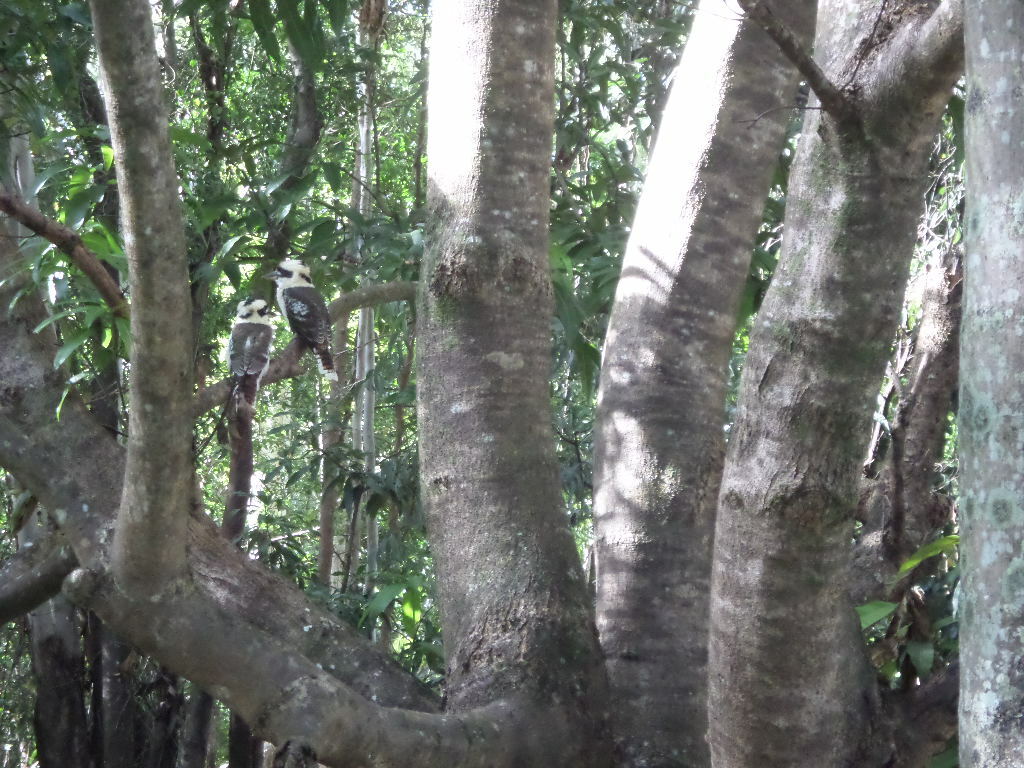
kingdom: Animalia
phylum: Chordata
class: Aves
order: Coraciiformes
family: Alcedinidae
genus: Dacelo
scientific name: Dacelo novaeguineae
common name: Laughing kookaburra
